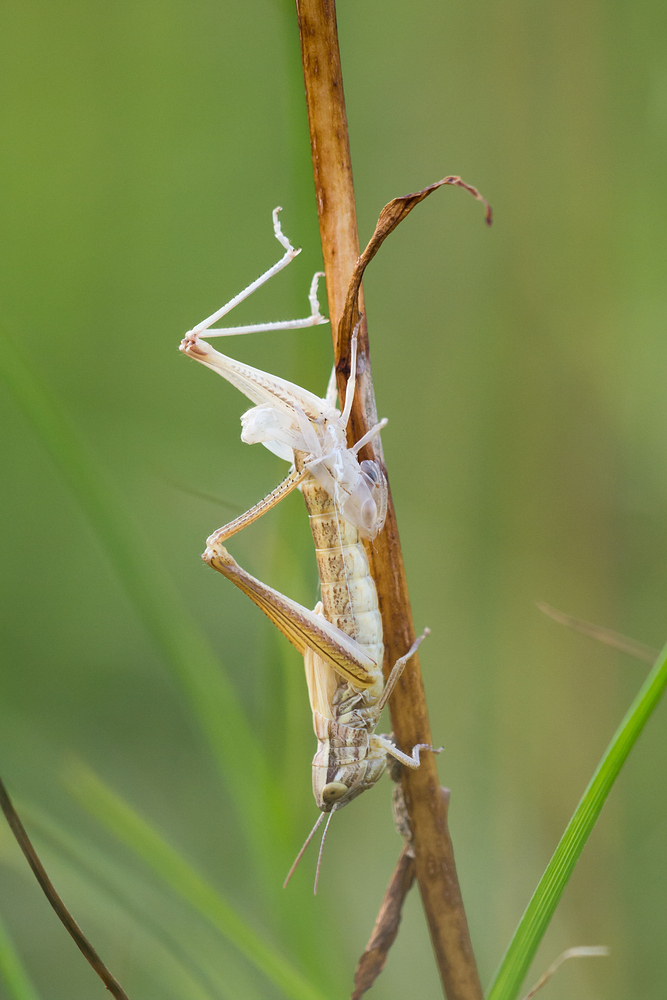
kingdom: Animalia
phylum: Arthropoda
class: Insecta
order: Orthoptera
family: Acrididae
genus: Euchorthippus
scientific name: Euchorthippus declivus
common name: Common straw grasshopper
